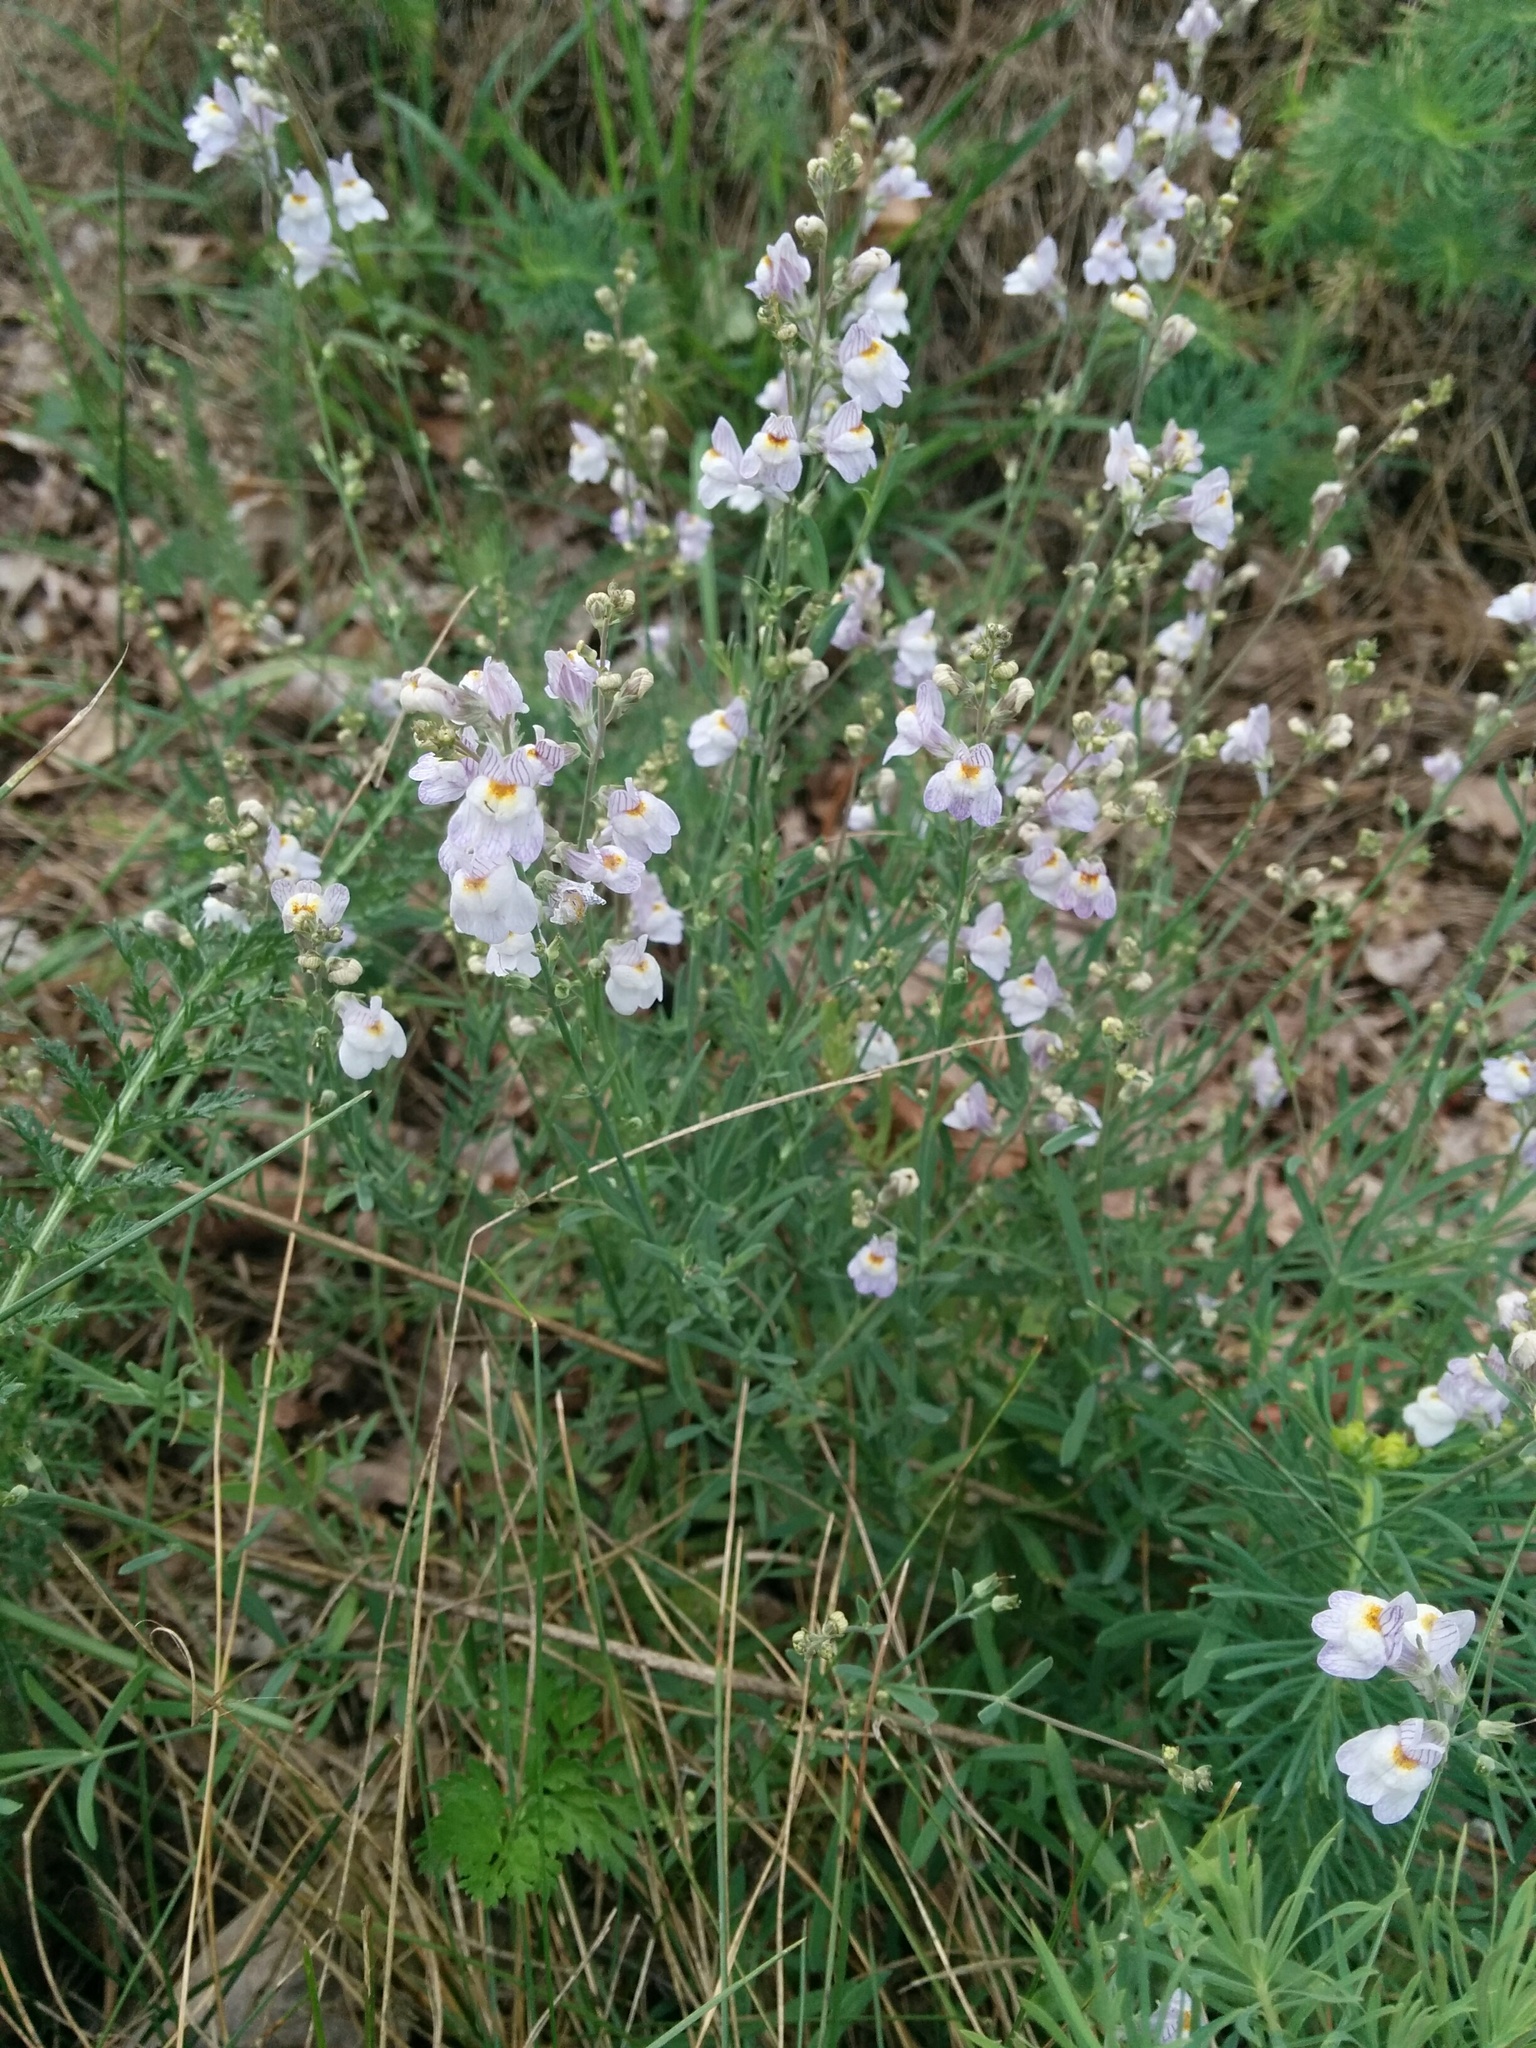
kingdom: Plantae
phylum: Tracheophyta
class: Magnoliopsida
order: Lamiales
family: Plantaginaceae
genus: Linaria
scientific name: Linaria repens
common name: Pale toadflax
